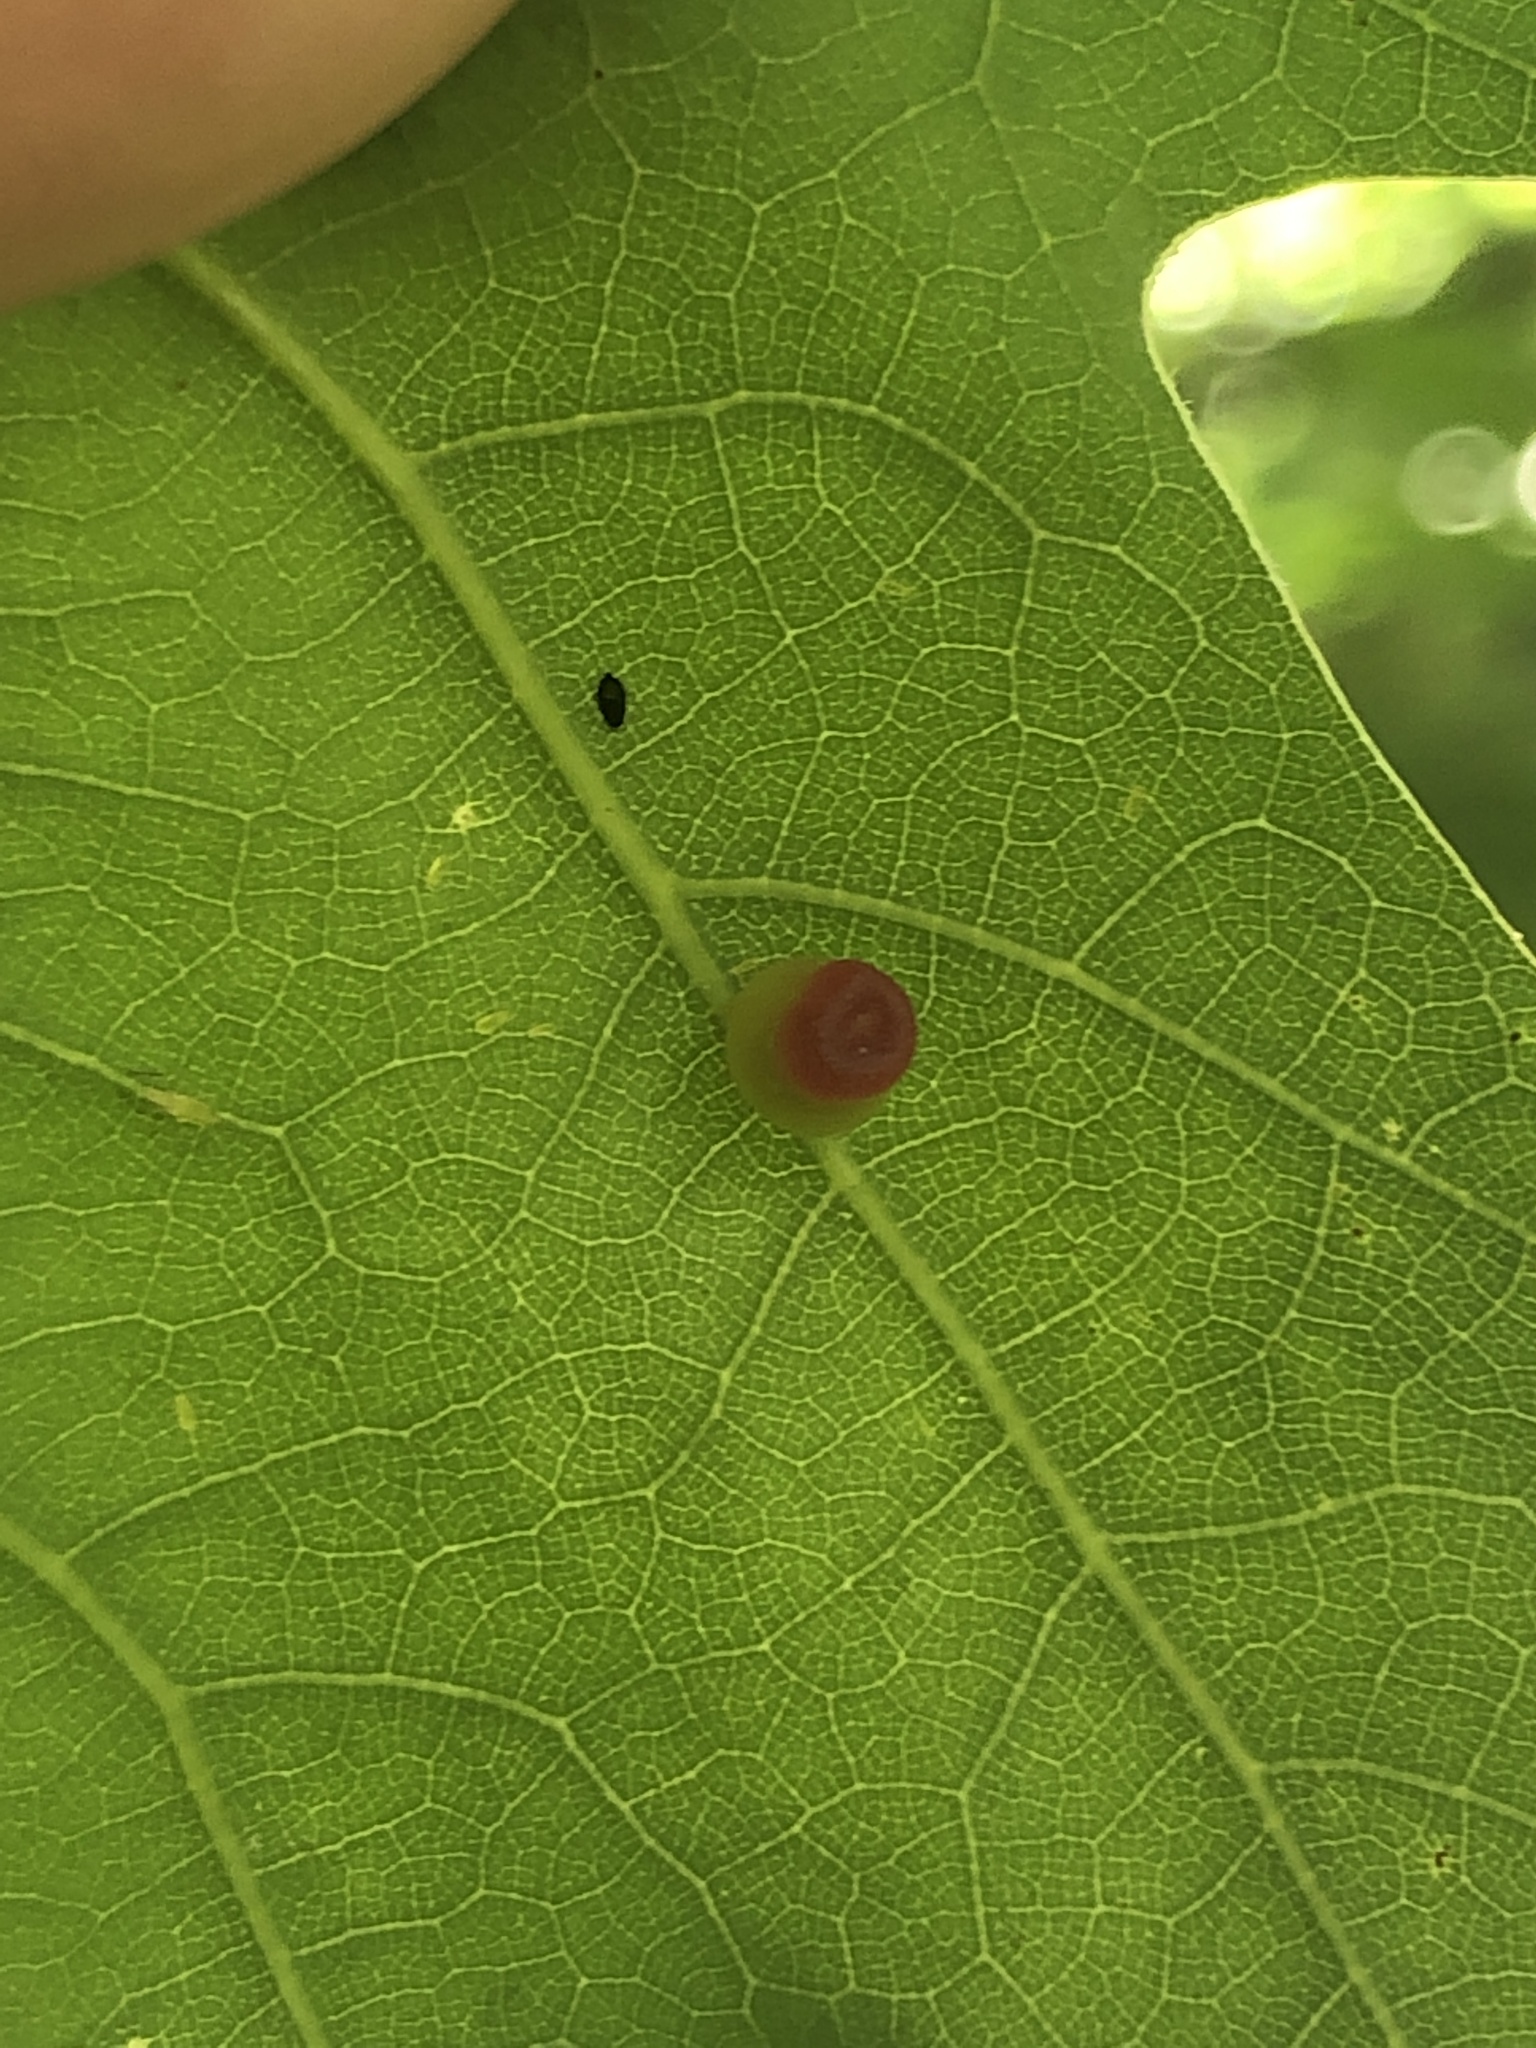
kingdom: Animalia
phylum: Arthropoda
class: Insecta
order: Hymenoptera
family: Cynipidae
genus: Kokkocynips
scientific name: Kokkocynips rileyi
